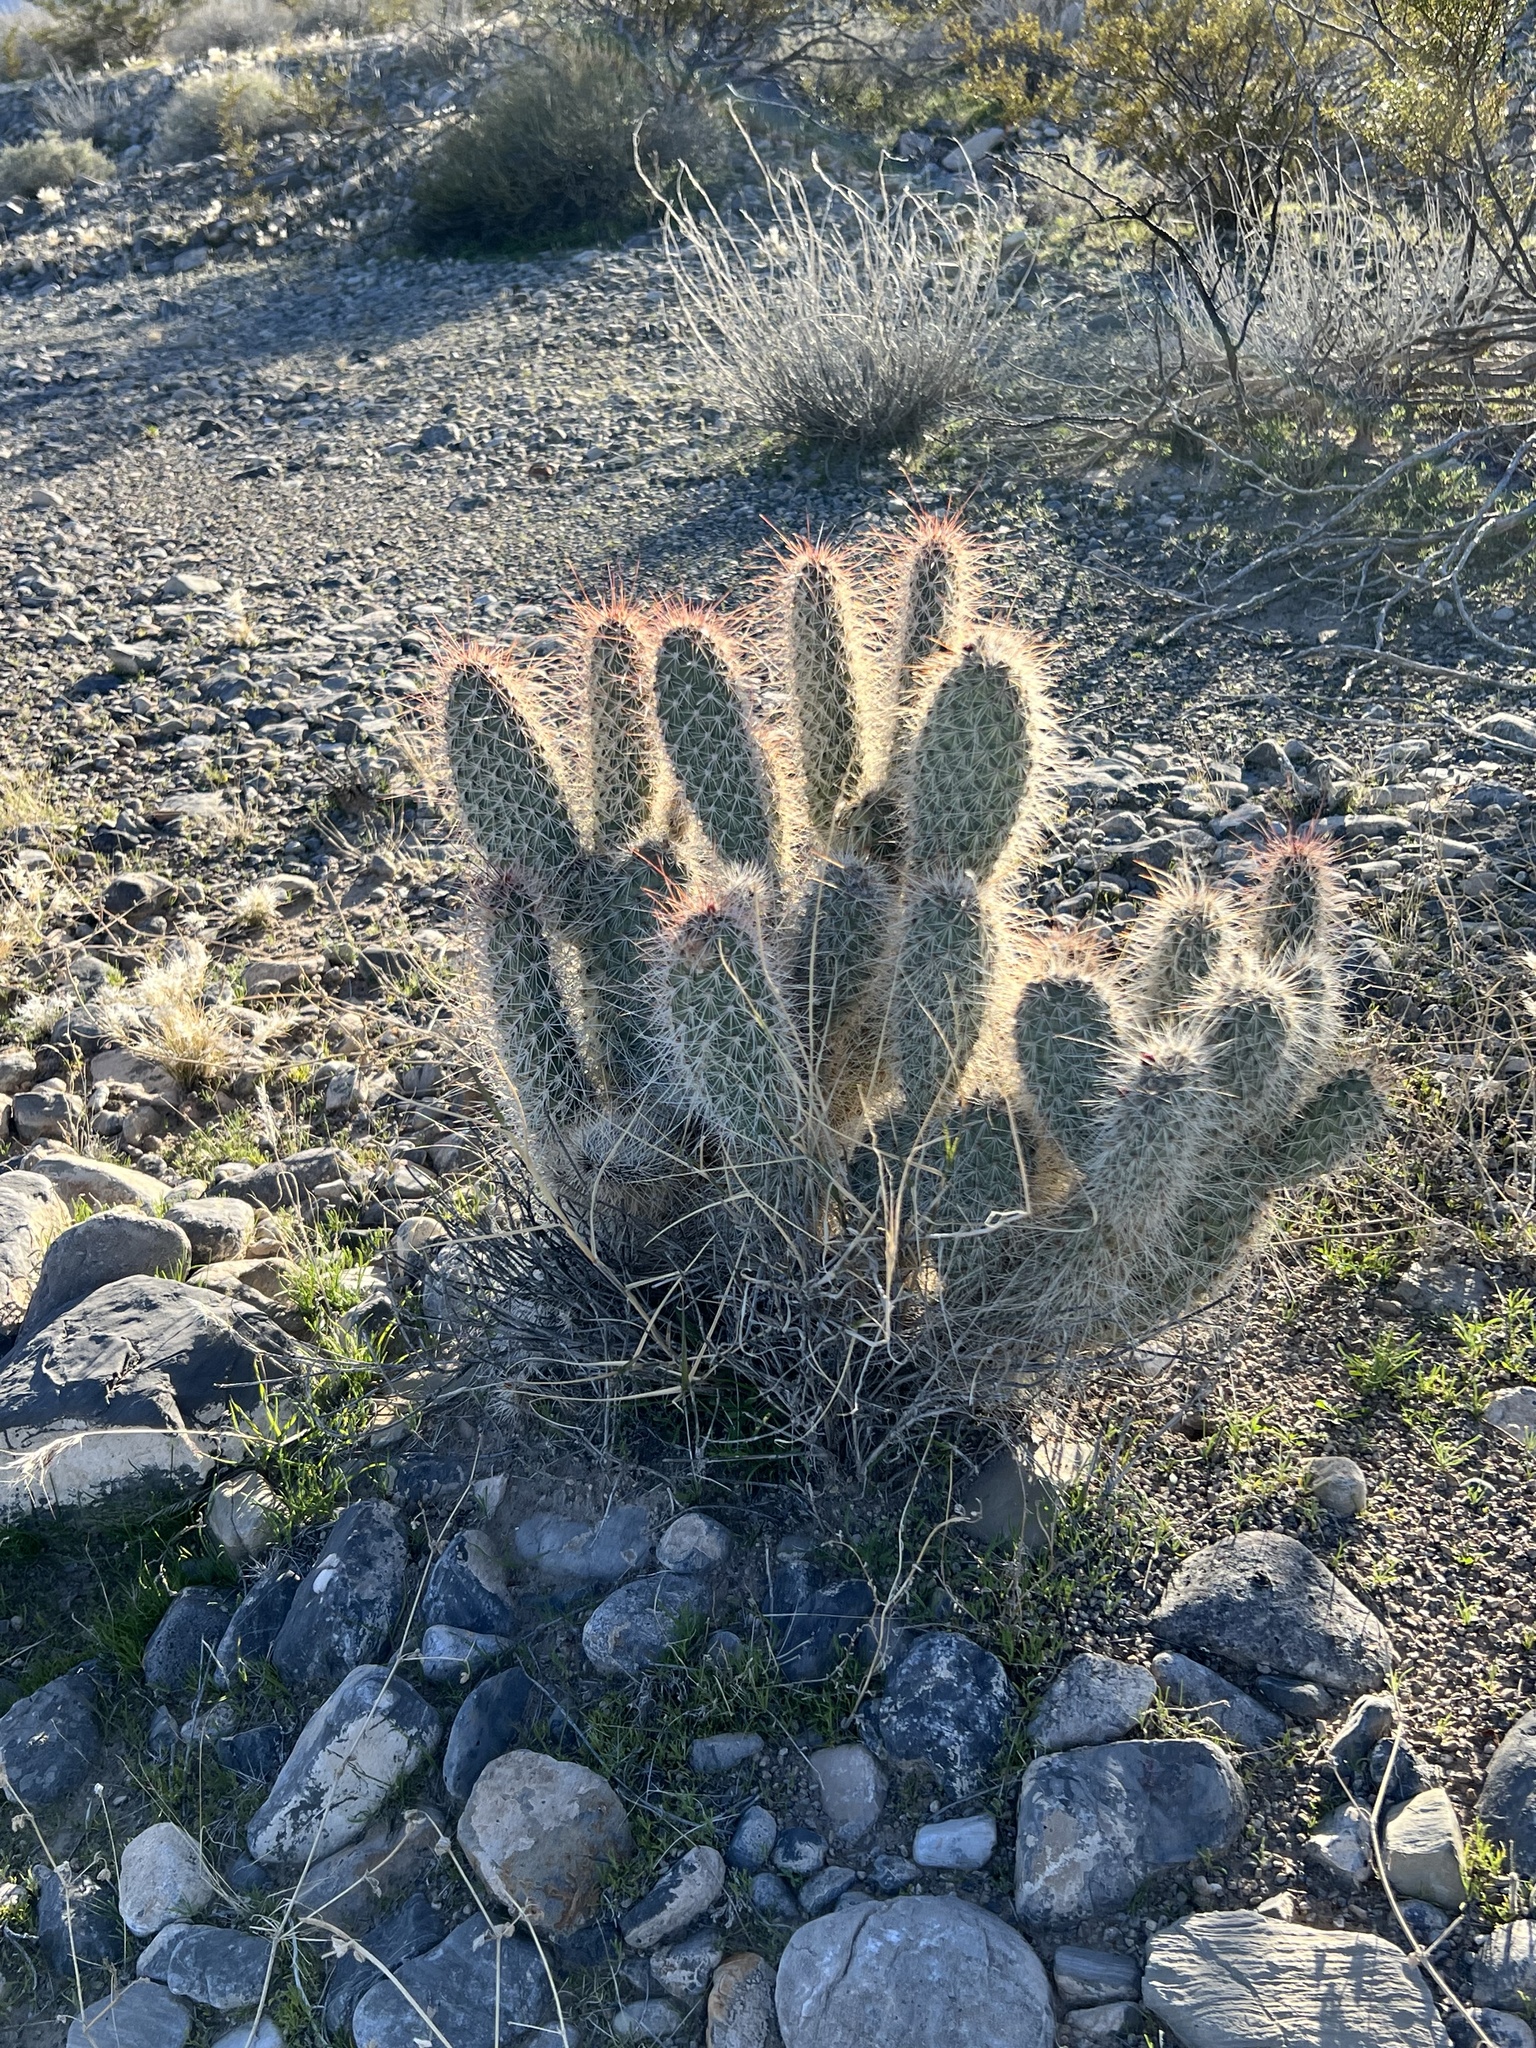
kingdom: Plantae
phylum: Tracheophyta
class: Magnoliopsida
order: Caryophyllales
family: Cactaceae
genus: Opuntia
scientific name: Opuntia polyacantha
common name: Plains prickly-pear
